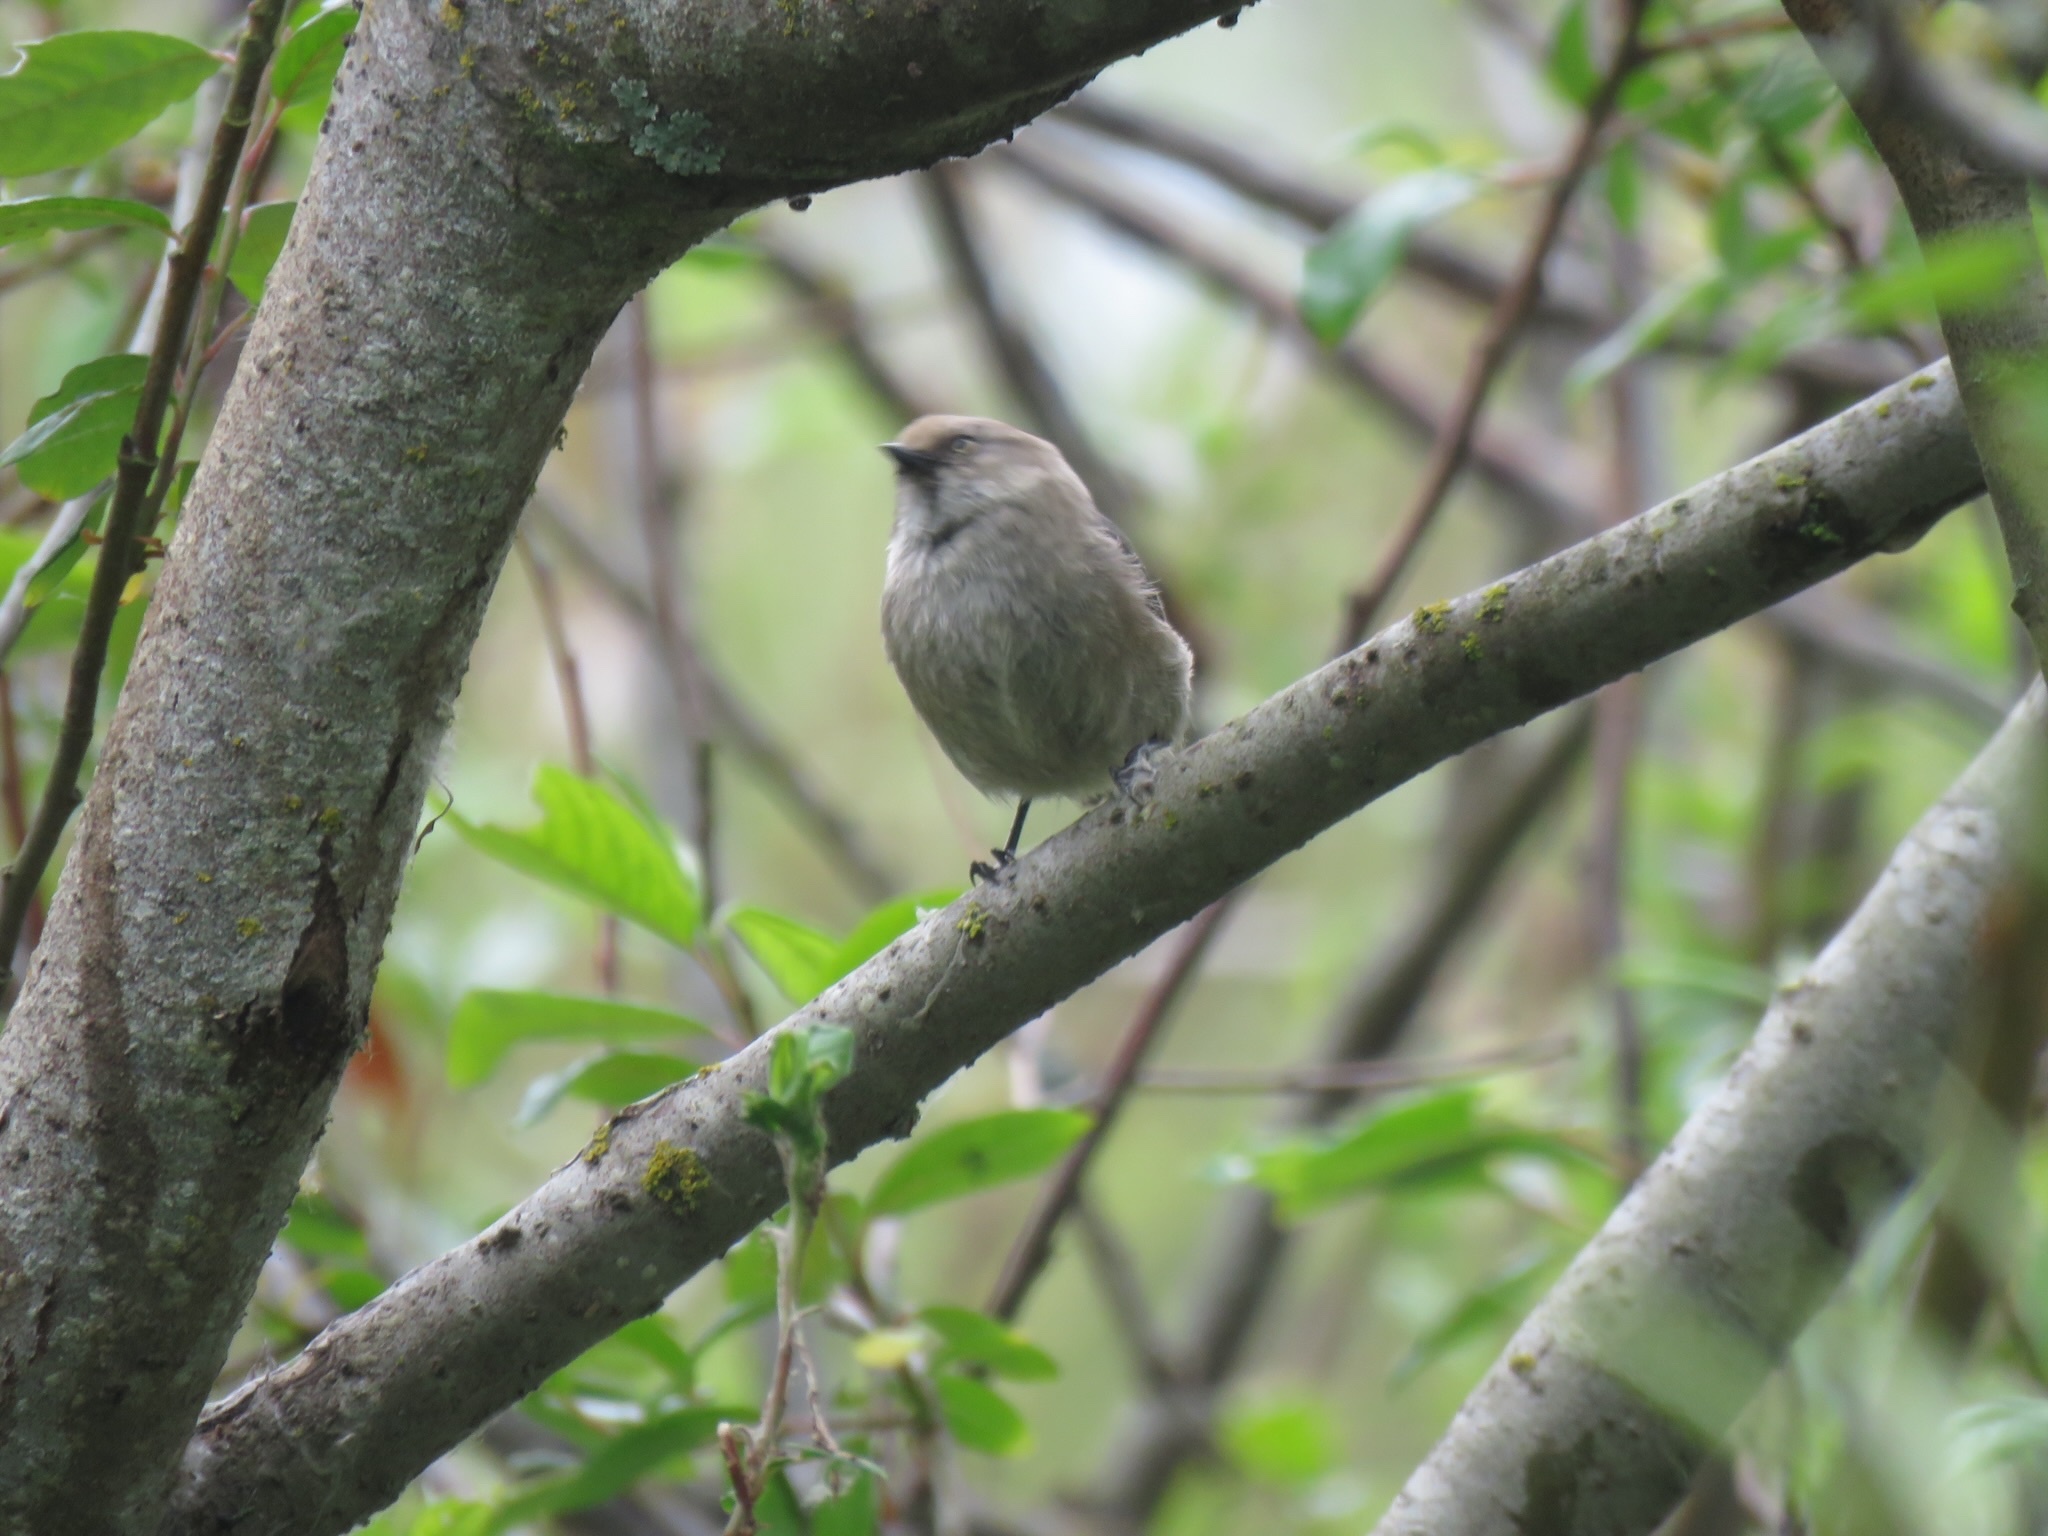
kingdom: Animalia
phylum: Chordata
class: Aves
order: Passeriformes
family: Aegithalidae
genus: Psaltriparus
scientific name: Psaltriparus minimus
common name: American bushtit
